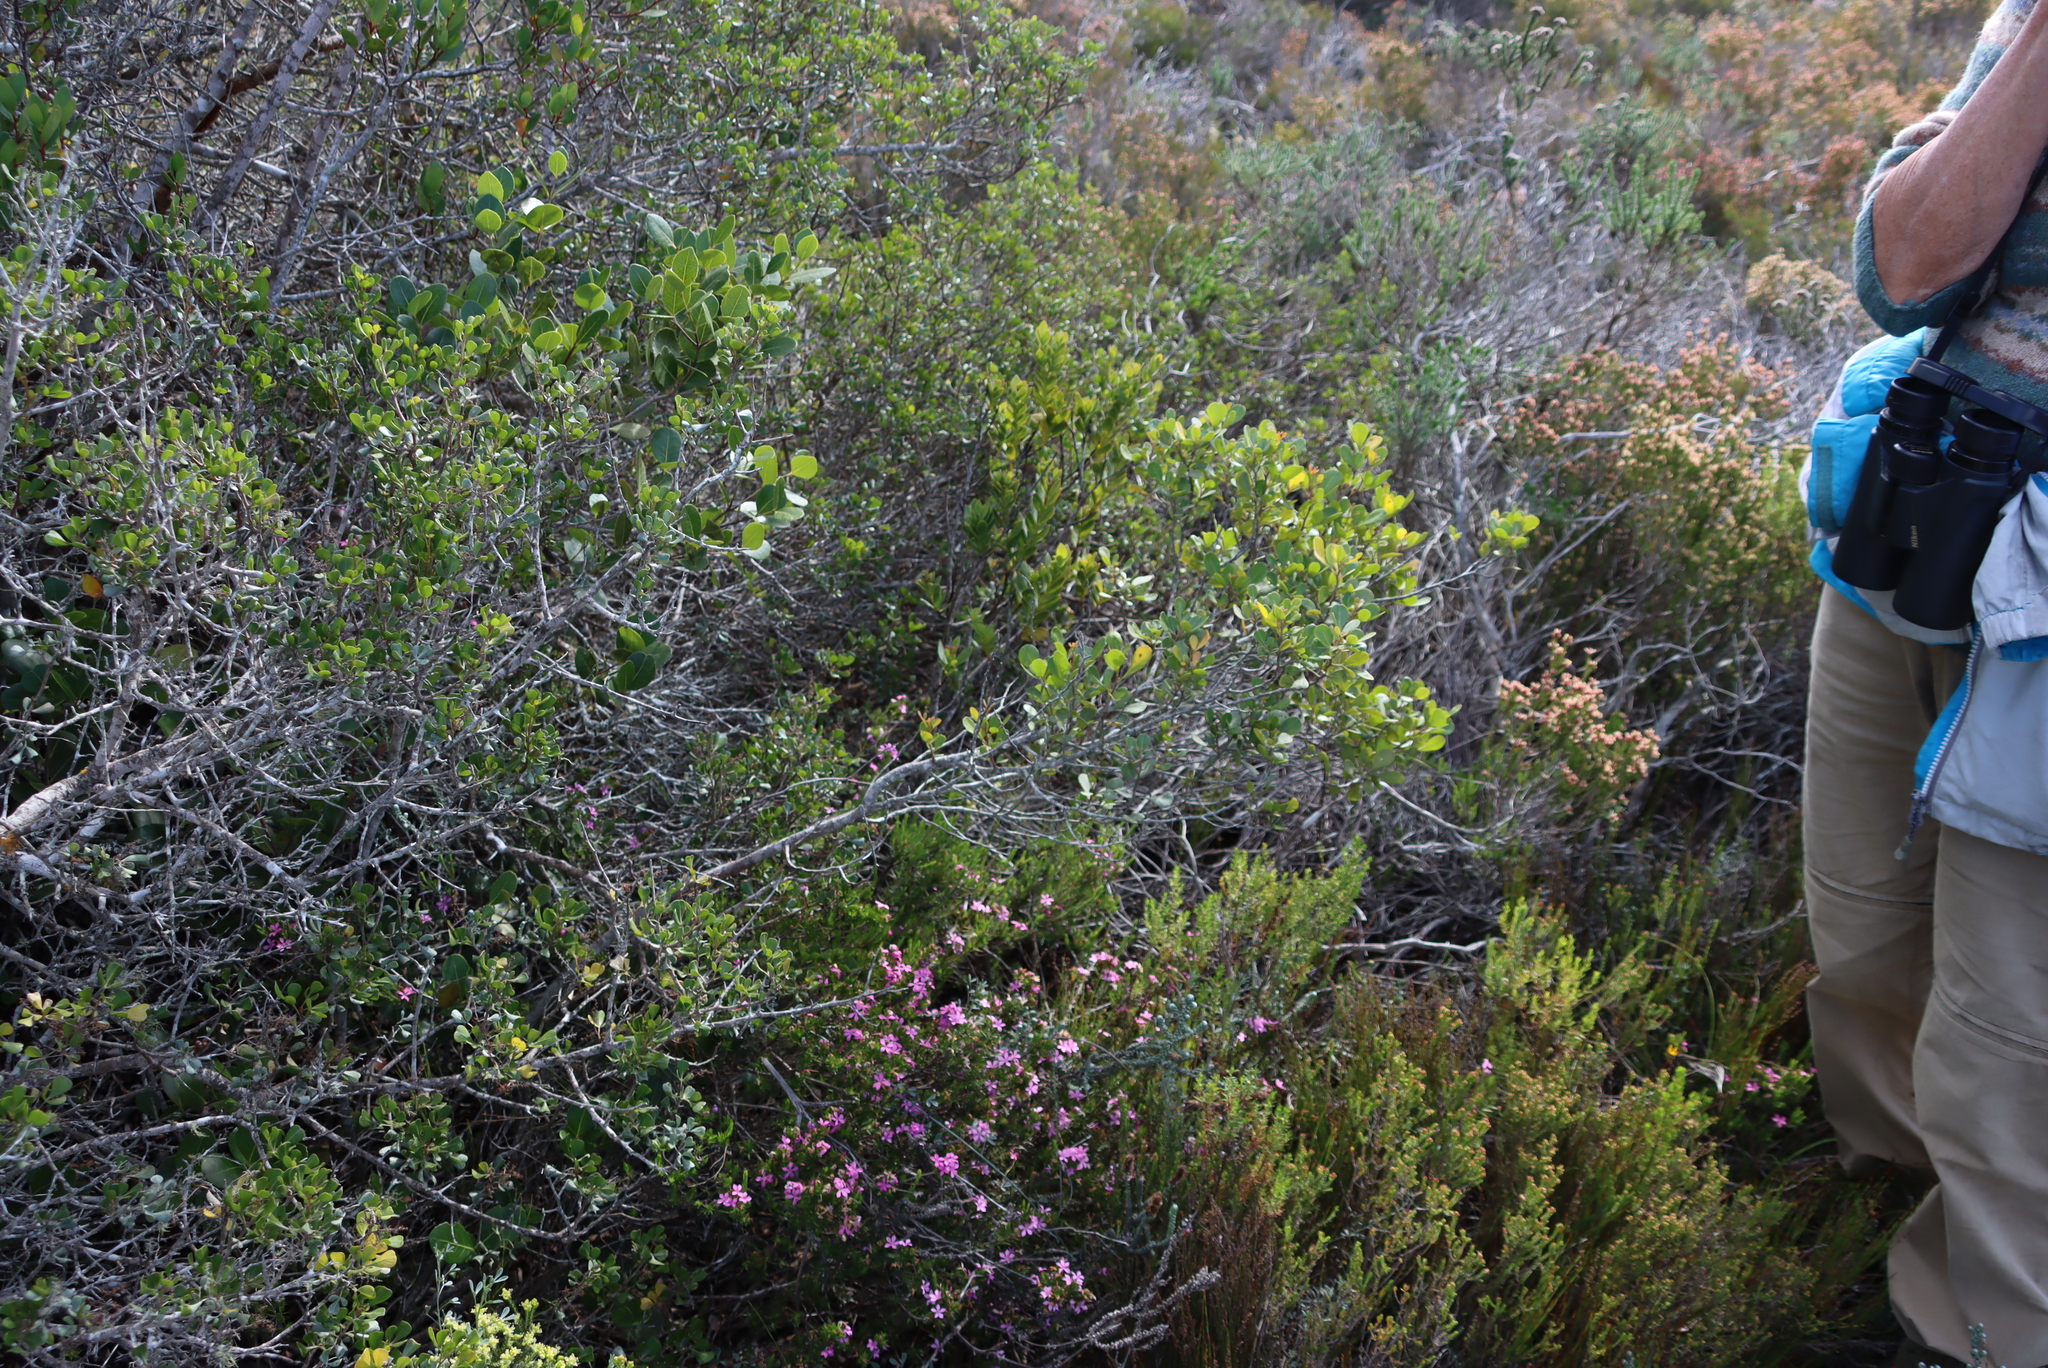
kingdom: Plantae
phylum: Tracheophyta
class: Magnoliopsida
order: Sapindales
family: Anacardiaceae
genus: Searsia
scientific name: Searsia lucida
